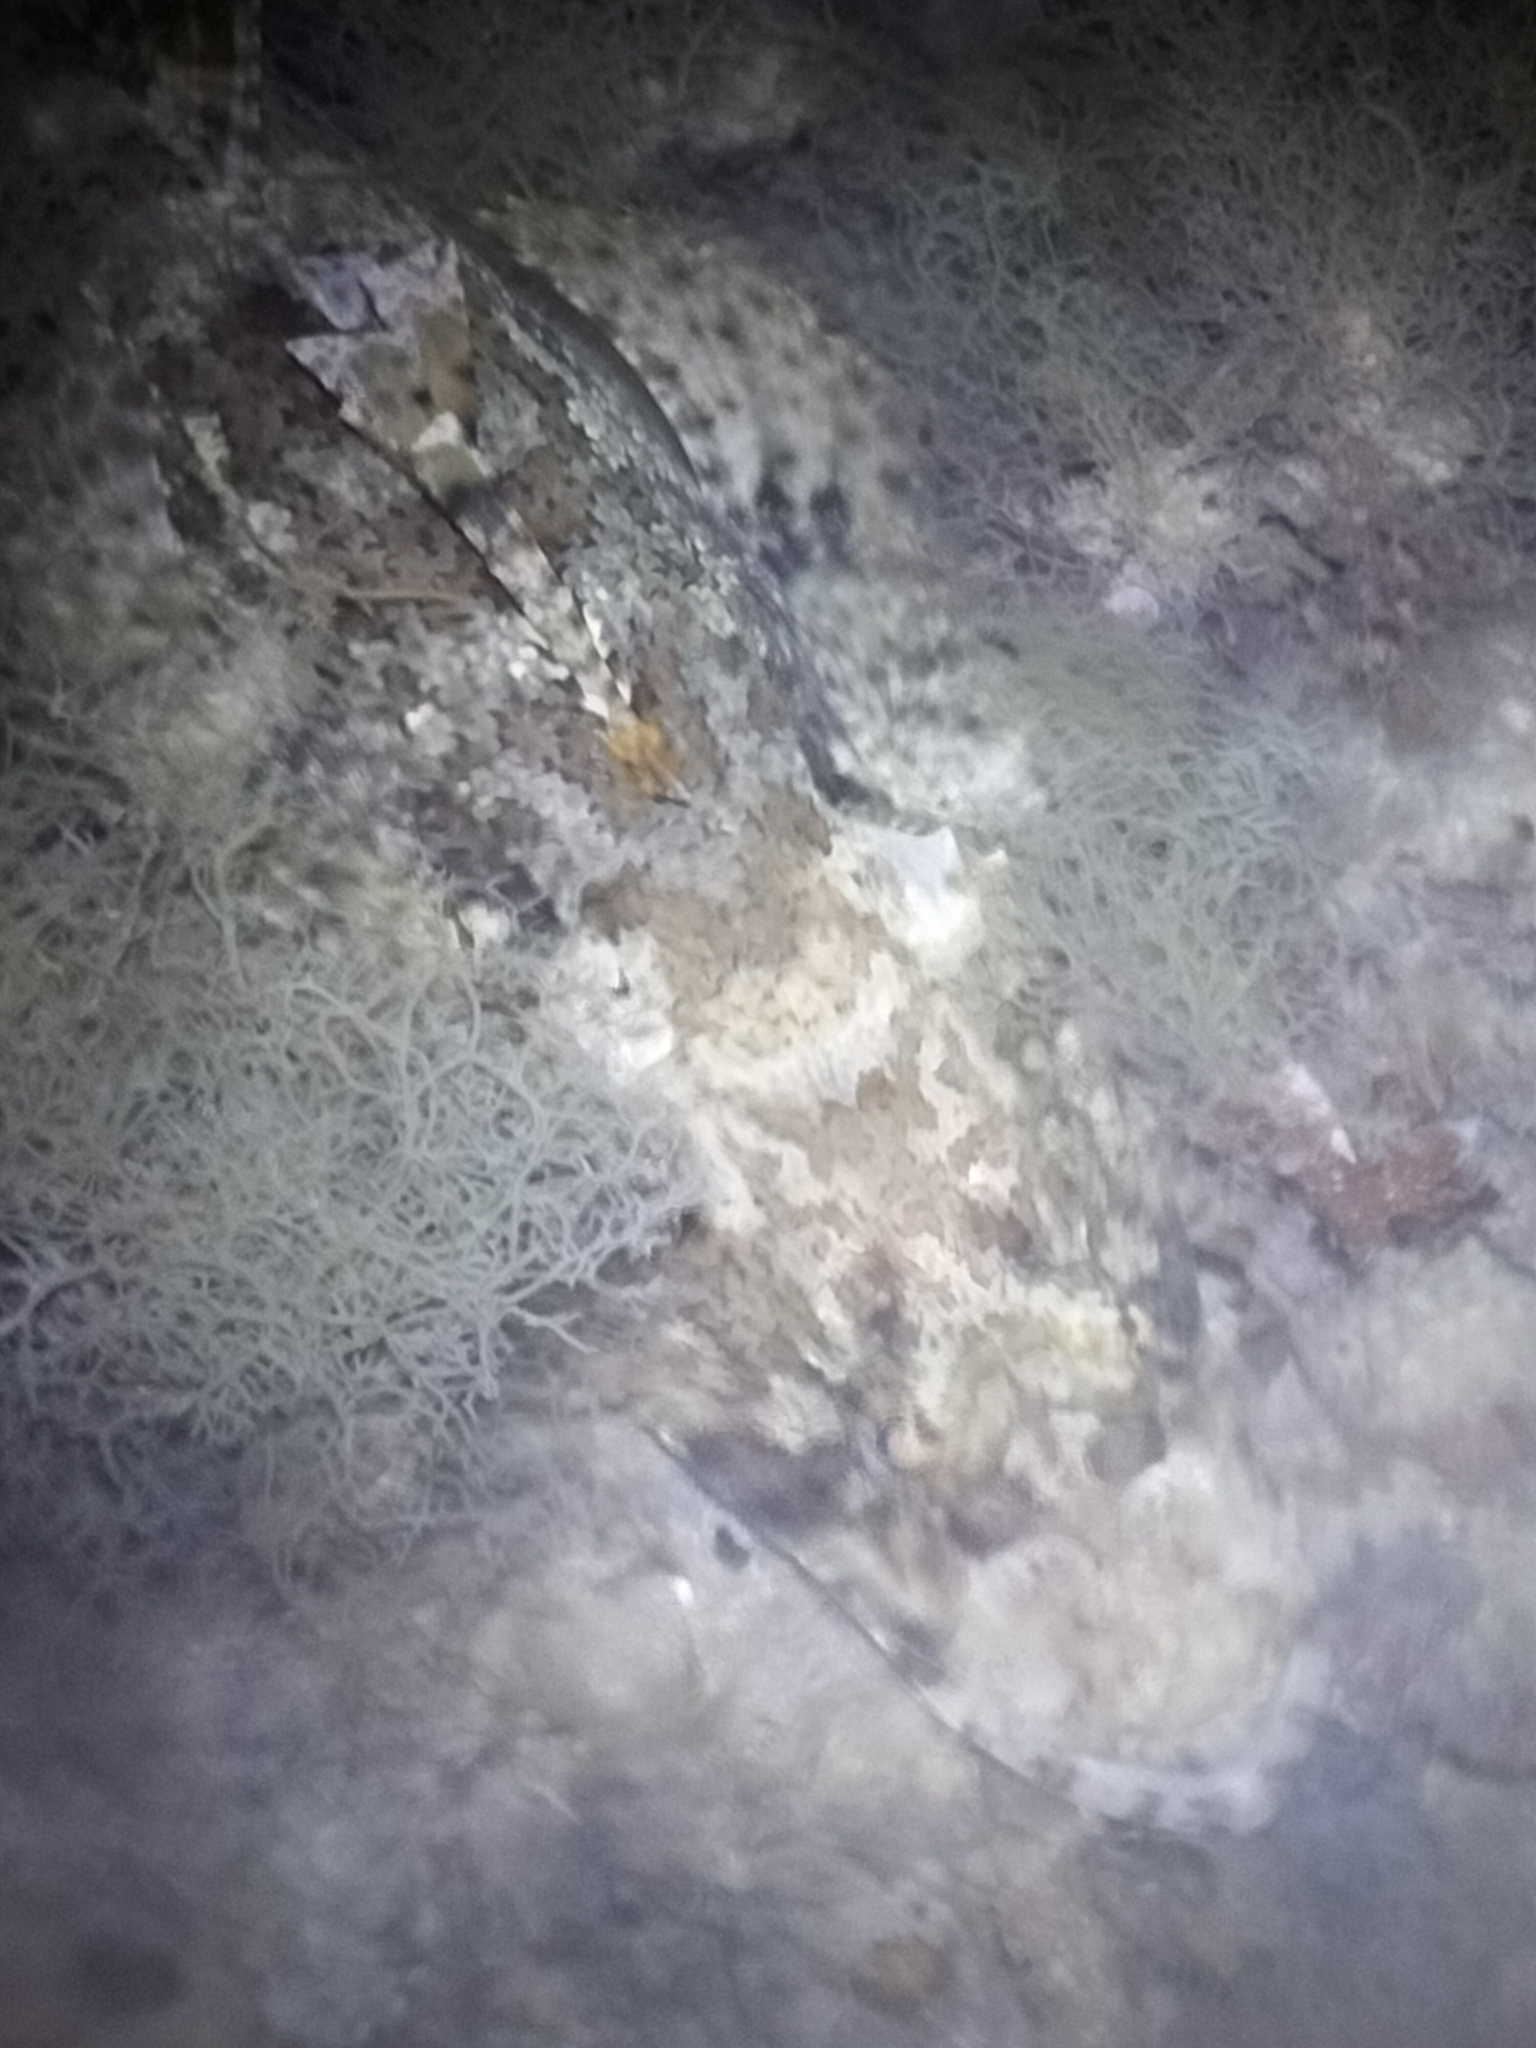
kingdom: Animalia
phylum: Chordata
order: Scorpaeniformes
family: Platycephalidae
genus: Cymbacephalus
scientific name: Cymbacephalus staigeri
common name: Black-freckled flathead
